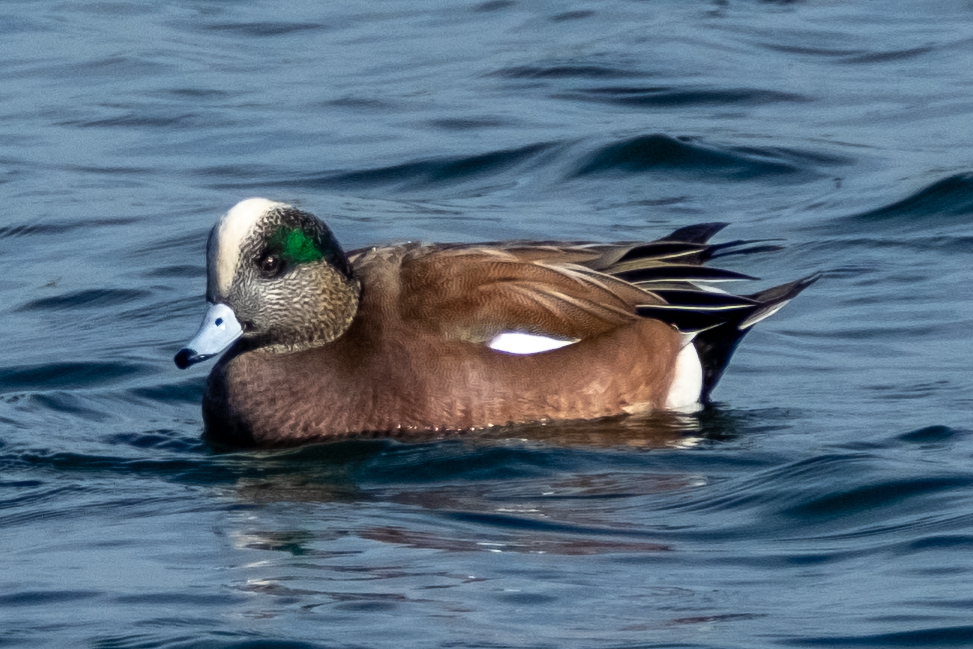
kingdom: Animalia
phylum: Chordata
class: Aves
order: Anseriformes
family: Anatidae
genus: Mareca
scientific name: Mareca americana
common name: American wigeon
